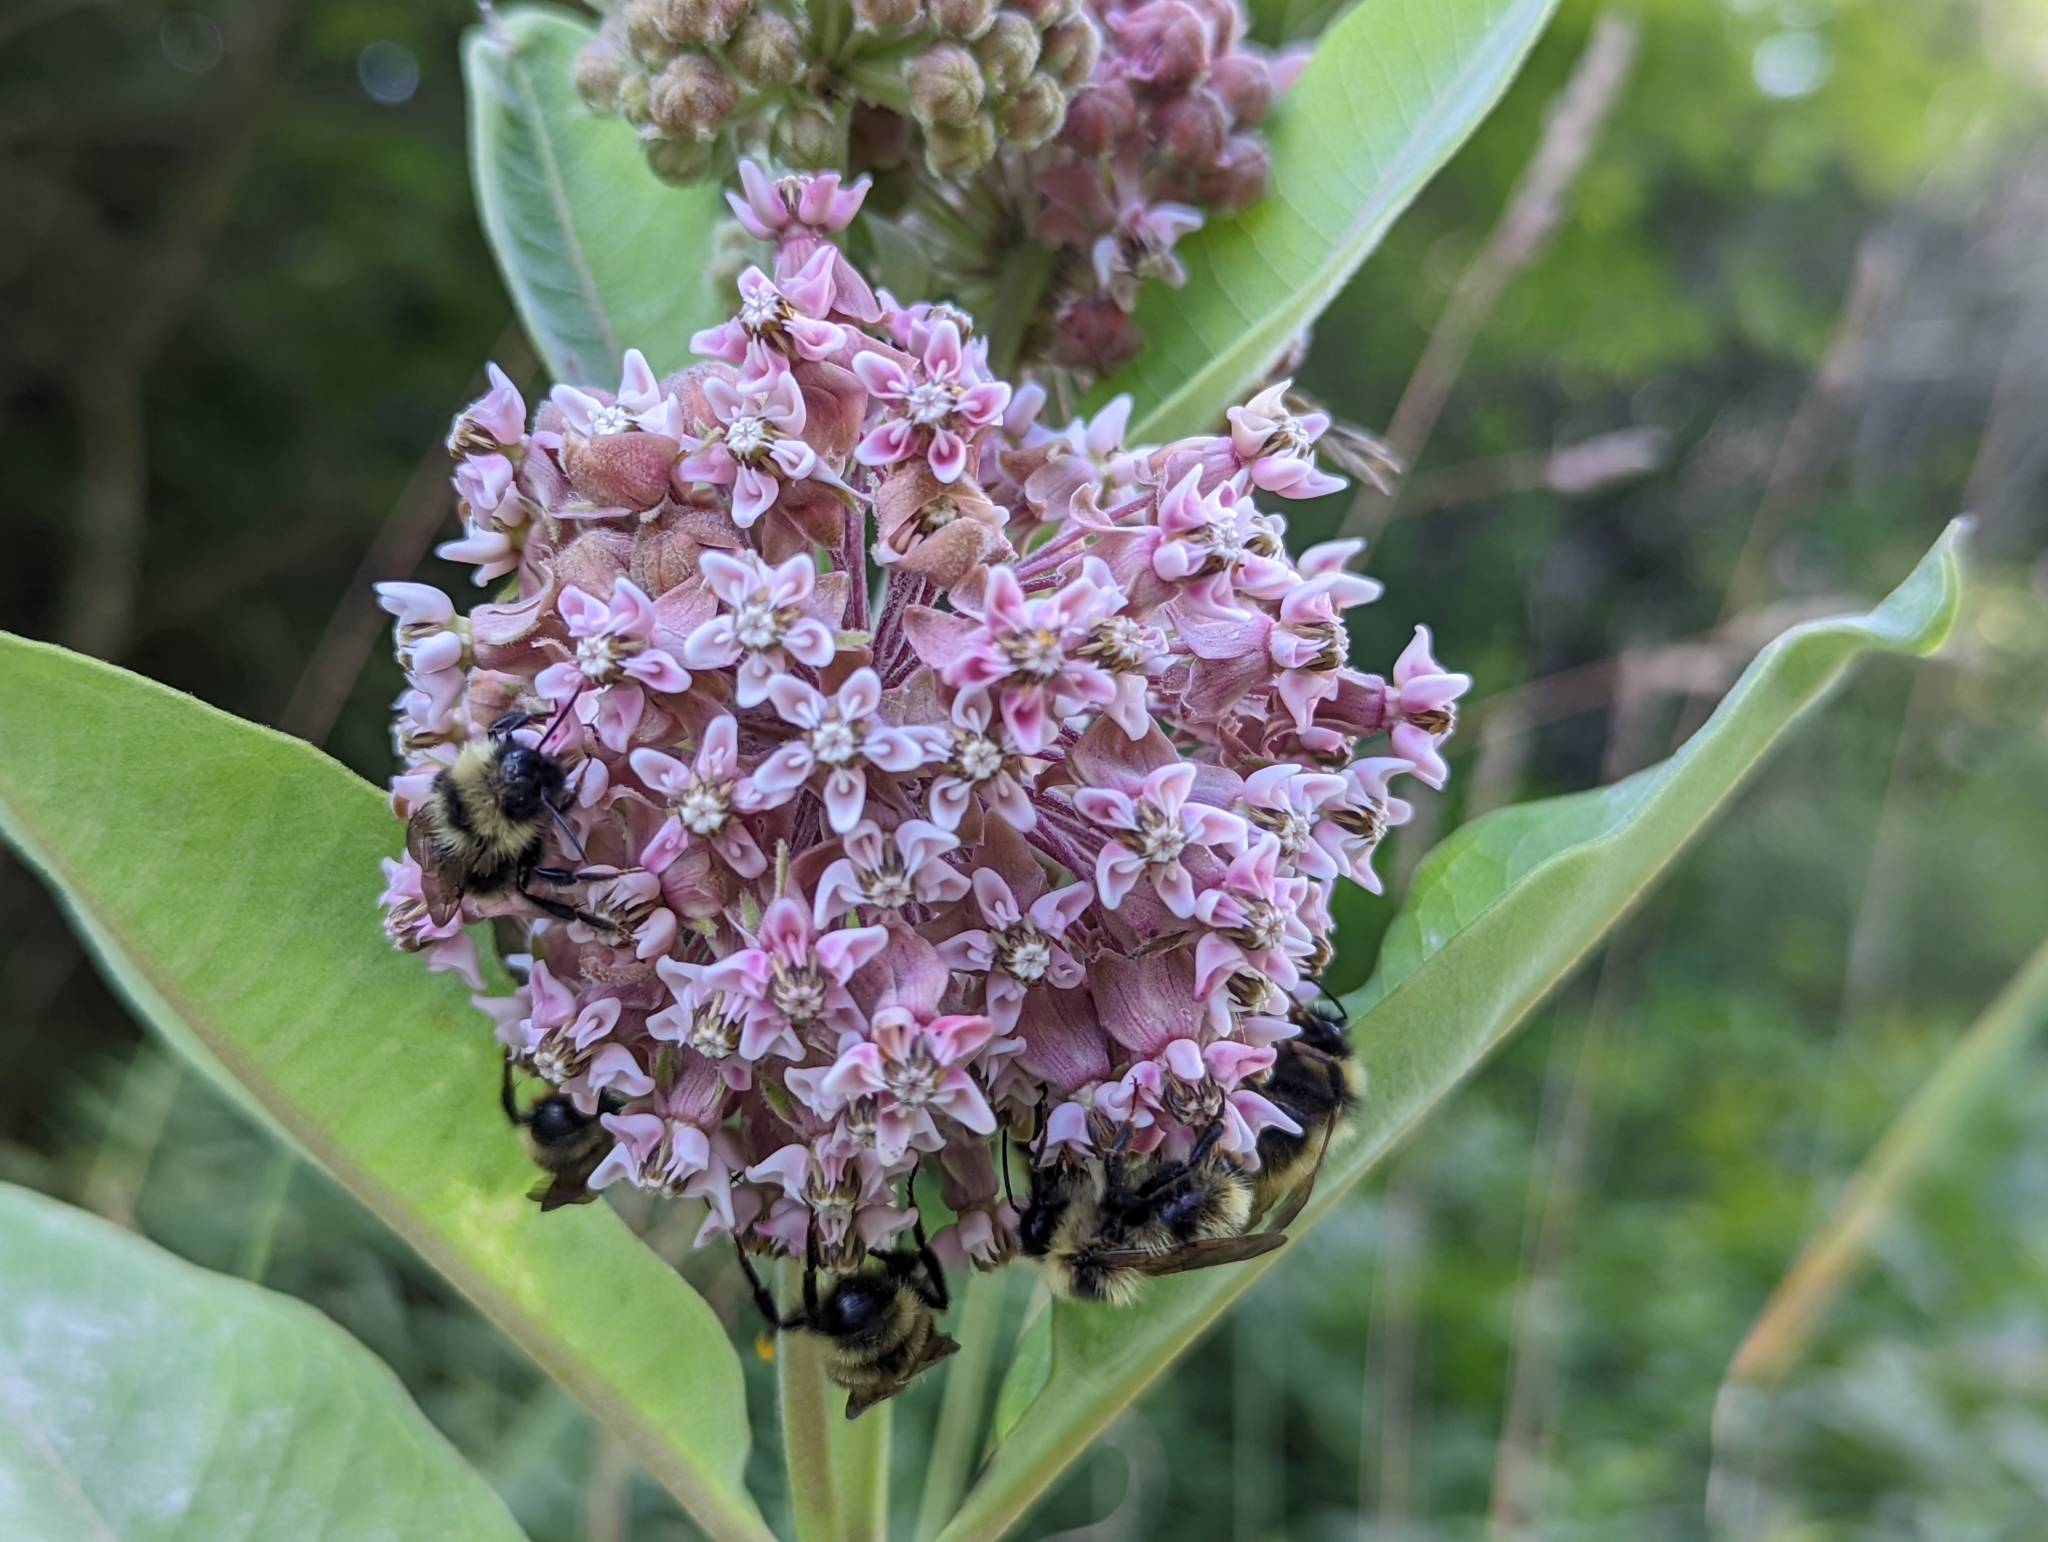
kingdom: Plantae
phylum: Tracheophyta
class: Magnoliopsida
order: Gentianales
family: Apocynaceae
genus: Asclepias
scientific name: Asclepias syriaca
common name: Common milkweed
